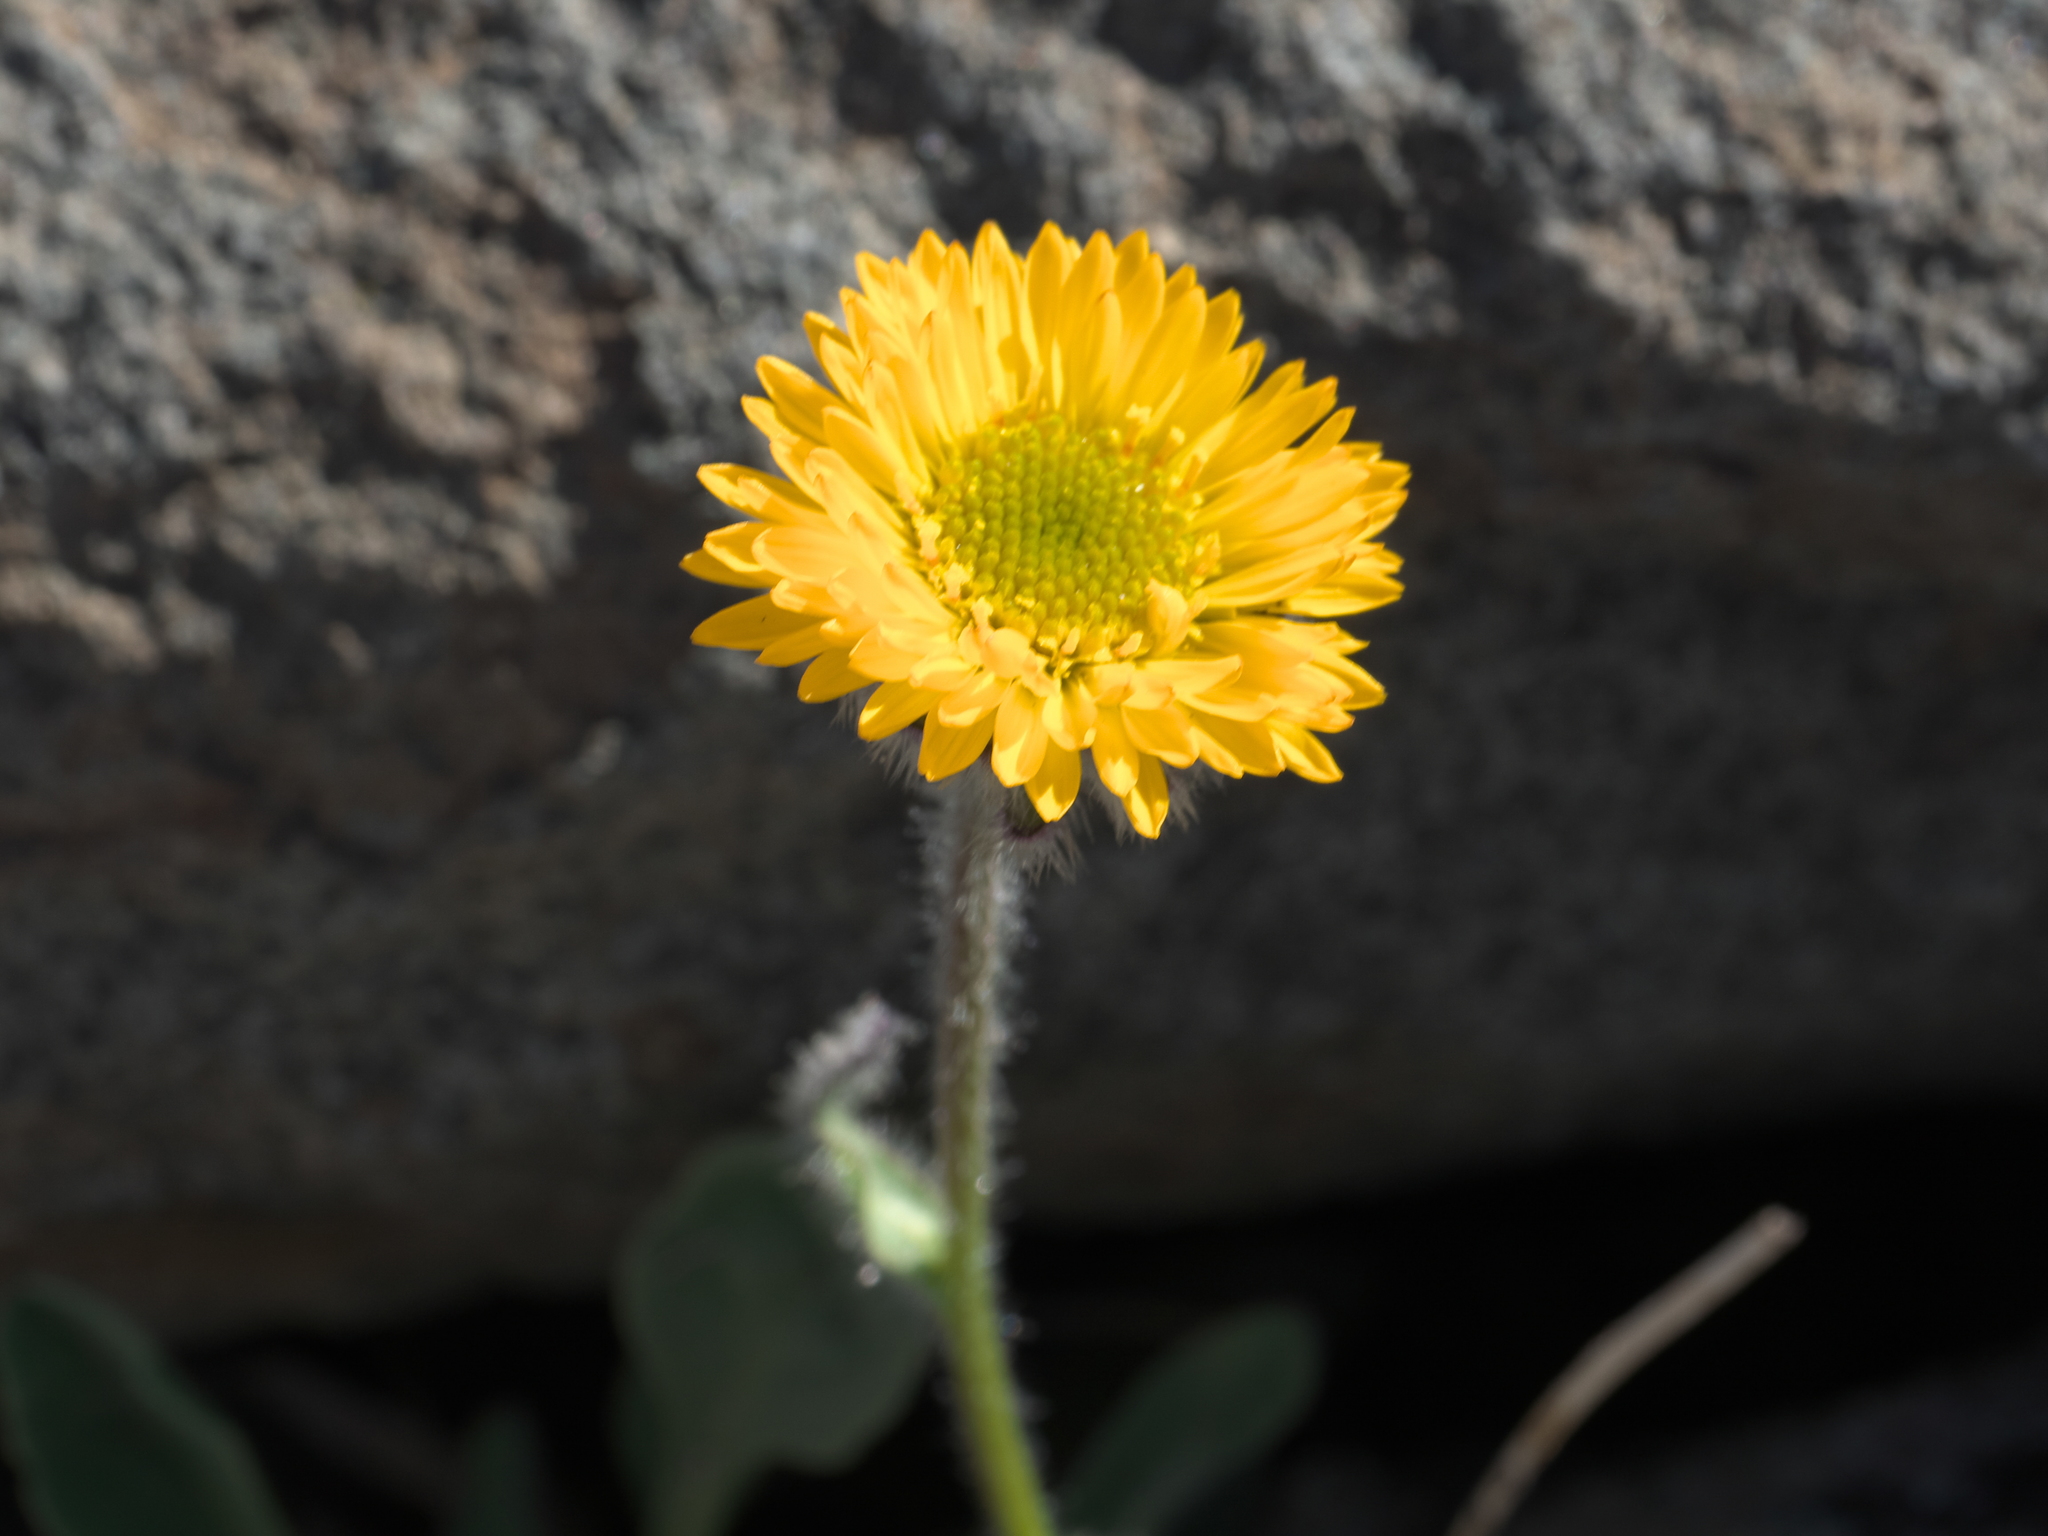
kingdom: Plantae
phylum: Tracheophyta
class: Magnoliopsida
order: Asterales
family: Asteraceae
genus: Erigeron
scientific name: Erigeron aureus
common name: Alpine yellow fleabane
